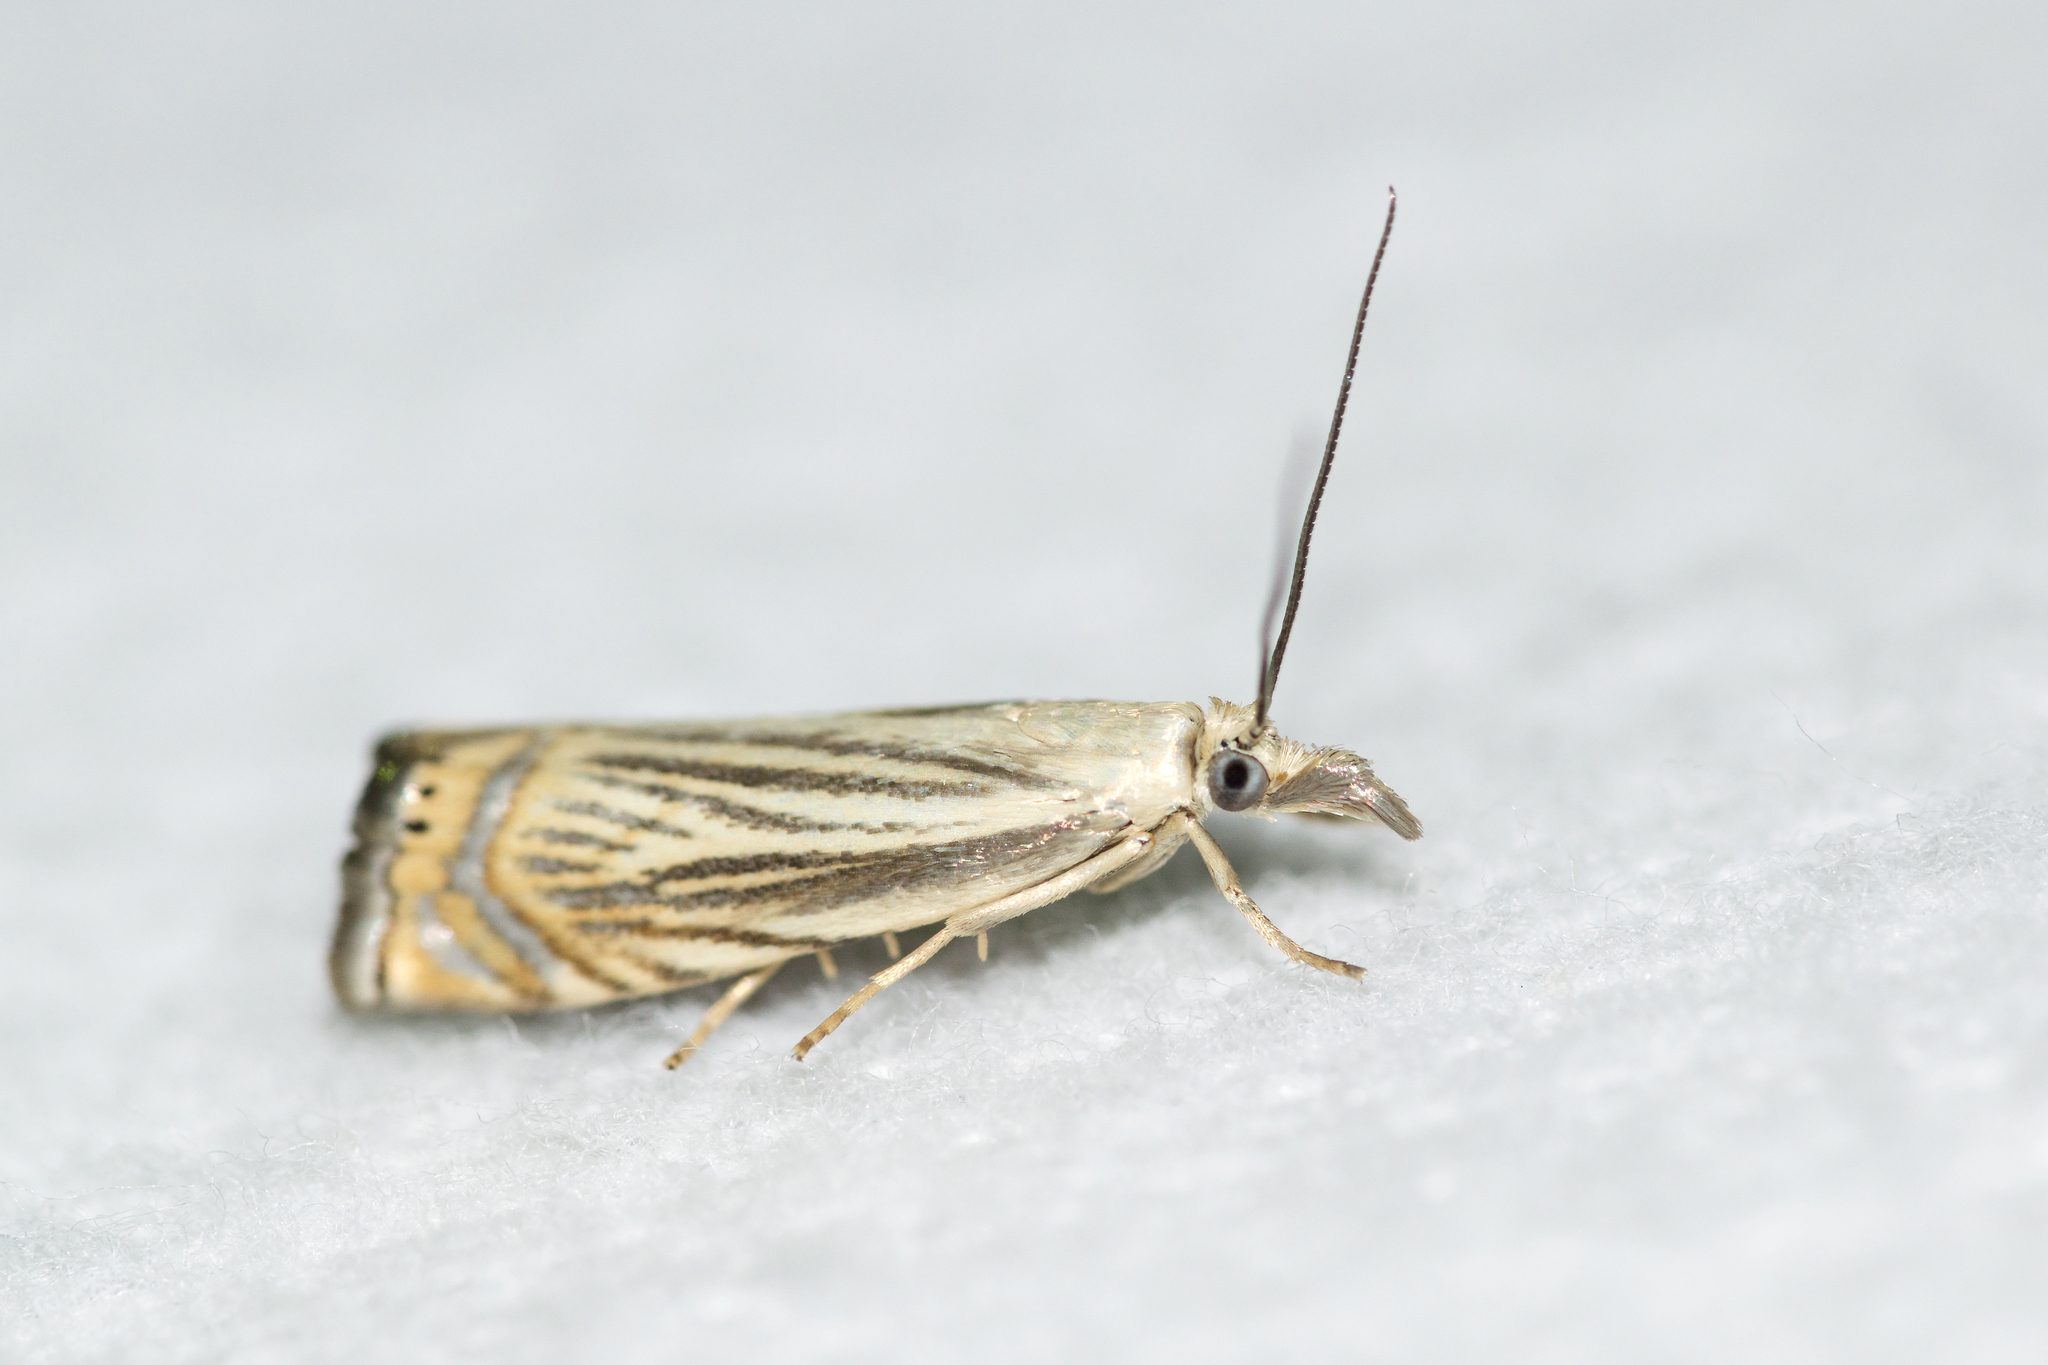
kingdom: Animalia
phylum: Arthropoda
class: Insecta
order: Lepidoptera
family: Crambidae
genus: Chrysoteuchia
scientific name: Chrysoteuchia topiarius
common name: Topiary grass-veneer
